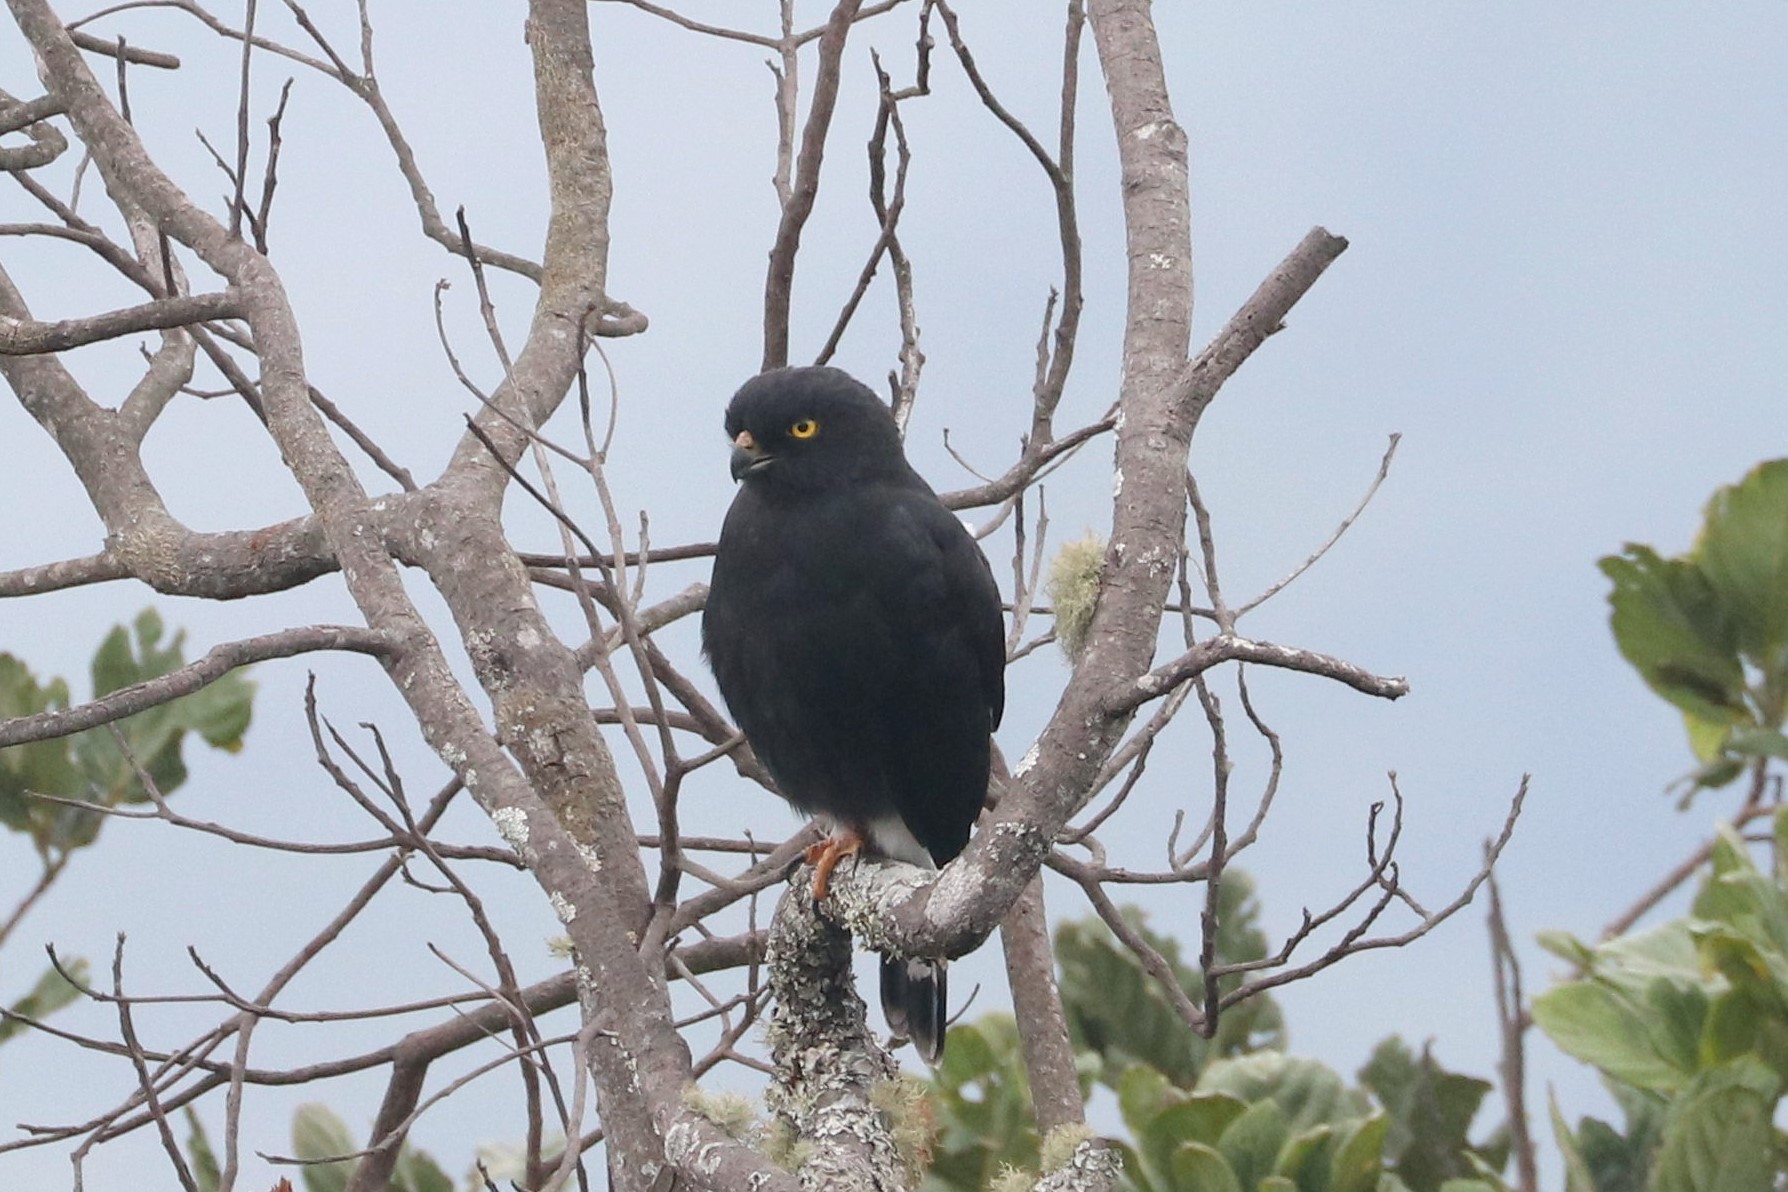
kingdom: Animalia
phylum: Chordata
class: Aves
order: Accipitriformes
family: Accipitridae
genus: Percnohierax
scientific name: Percnohierax leucorrhous
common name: White-rumped hawk
